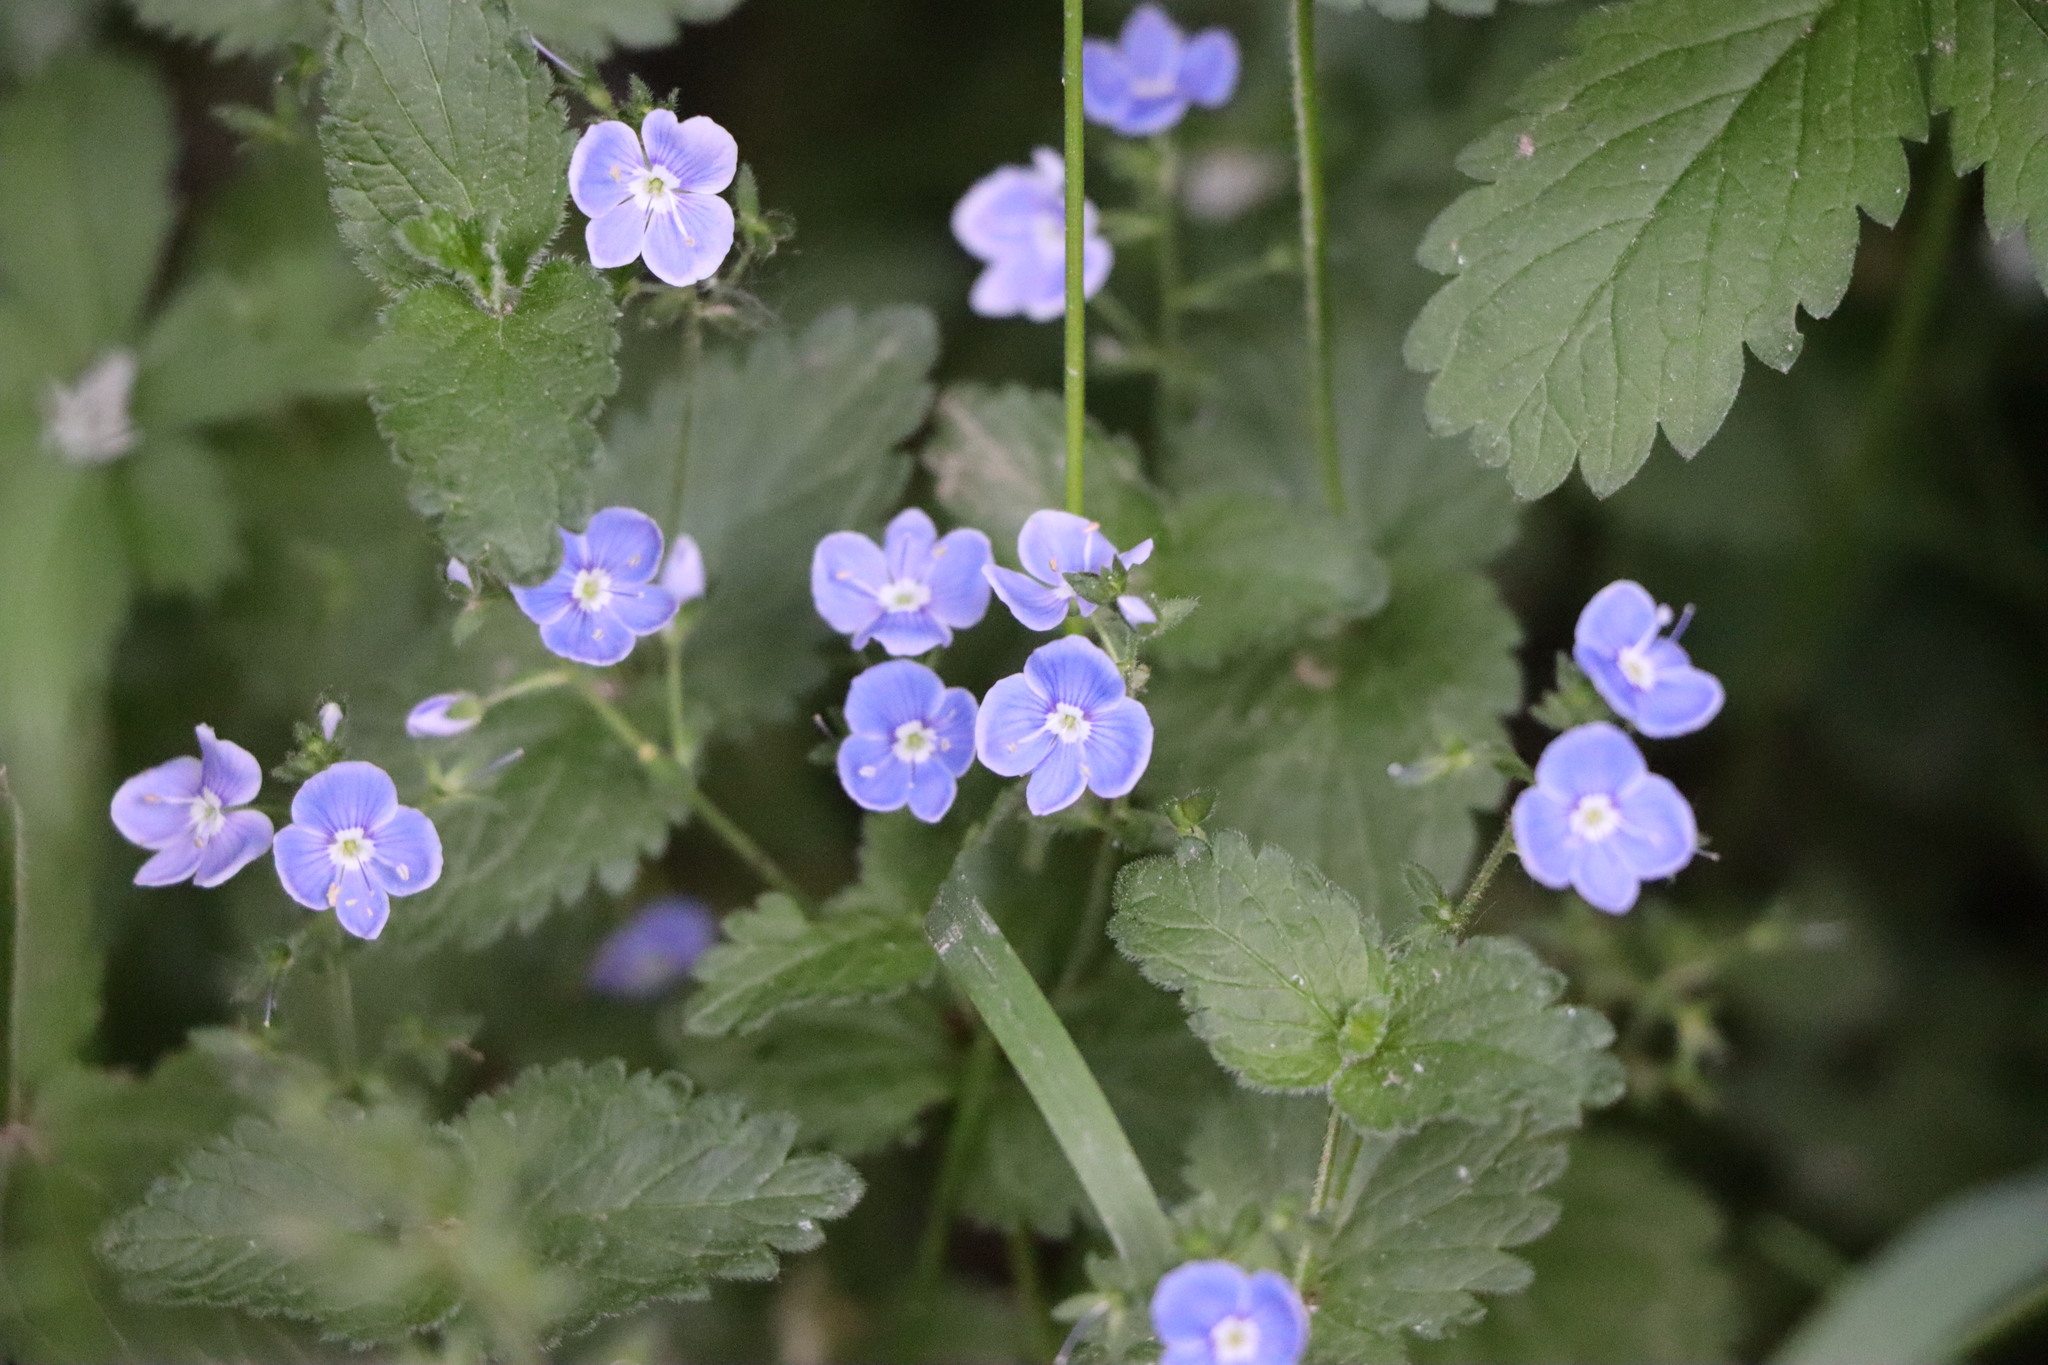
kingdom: Plantae
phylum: Tracheophyta
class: Magnoliopsida
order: Lamiales
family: Plantaginaceae
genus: Veronica
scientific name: Veronica chamaedrys
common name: Germander speedwell
